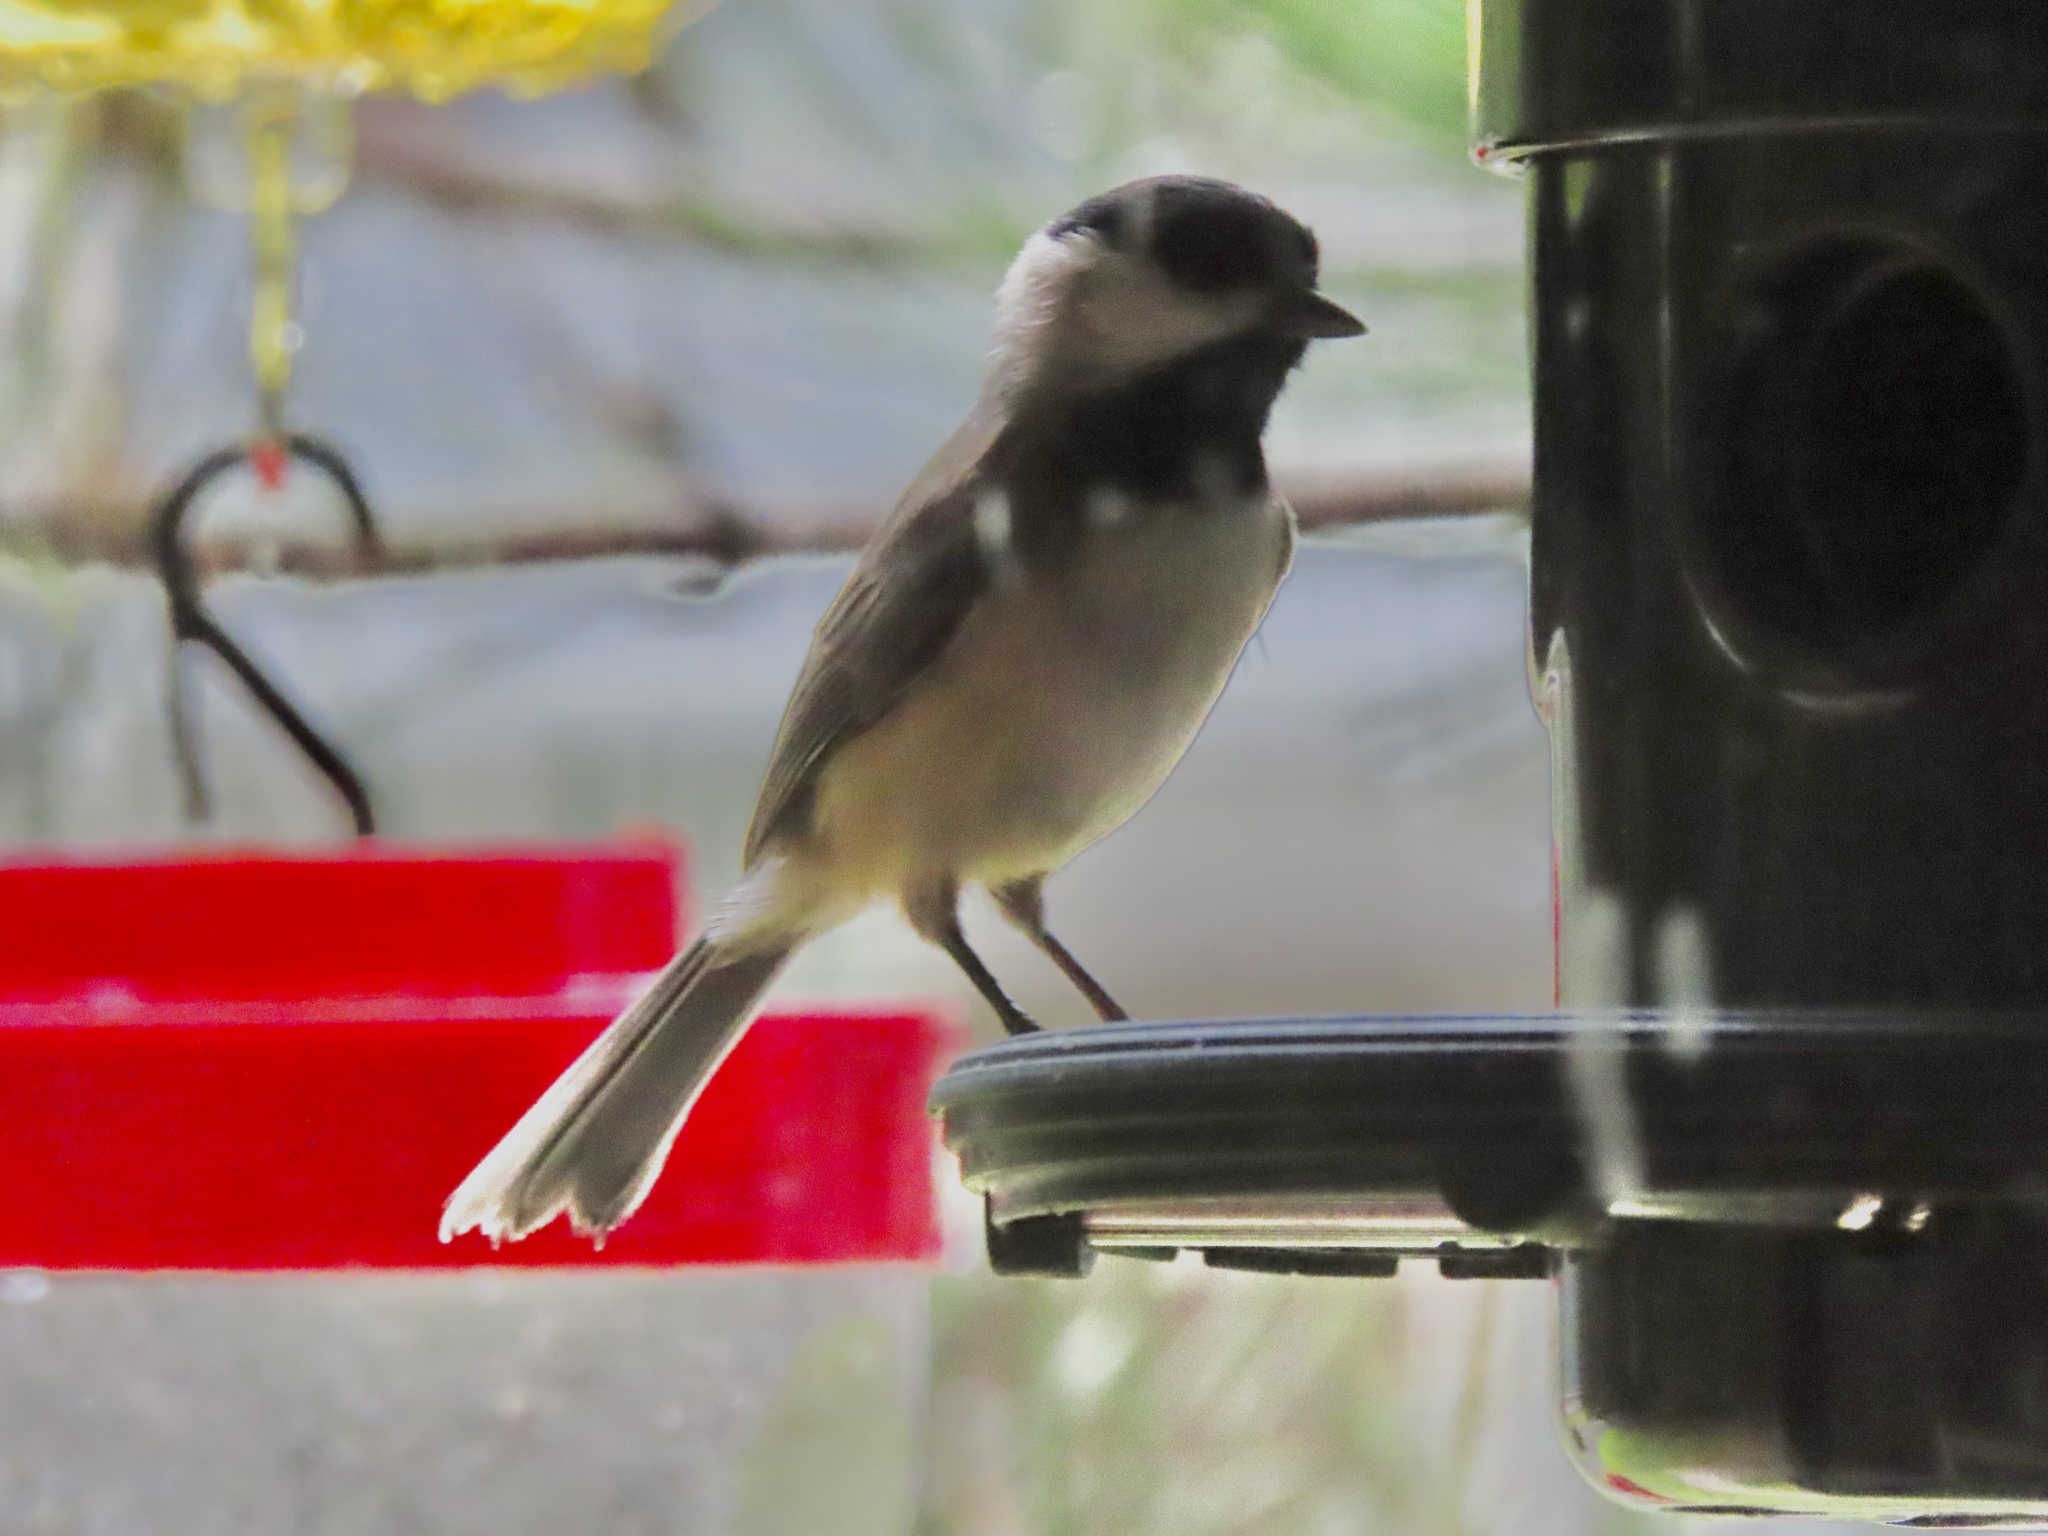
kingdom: Animalia
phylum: Chordata
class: Aves
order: Passeriformes
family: Paridae
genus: Poecile
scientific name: Poecile carolinensis
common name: Carolina chickadee
